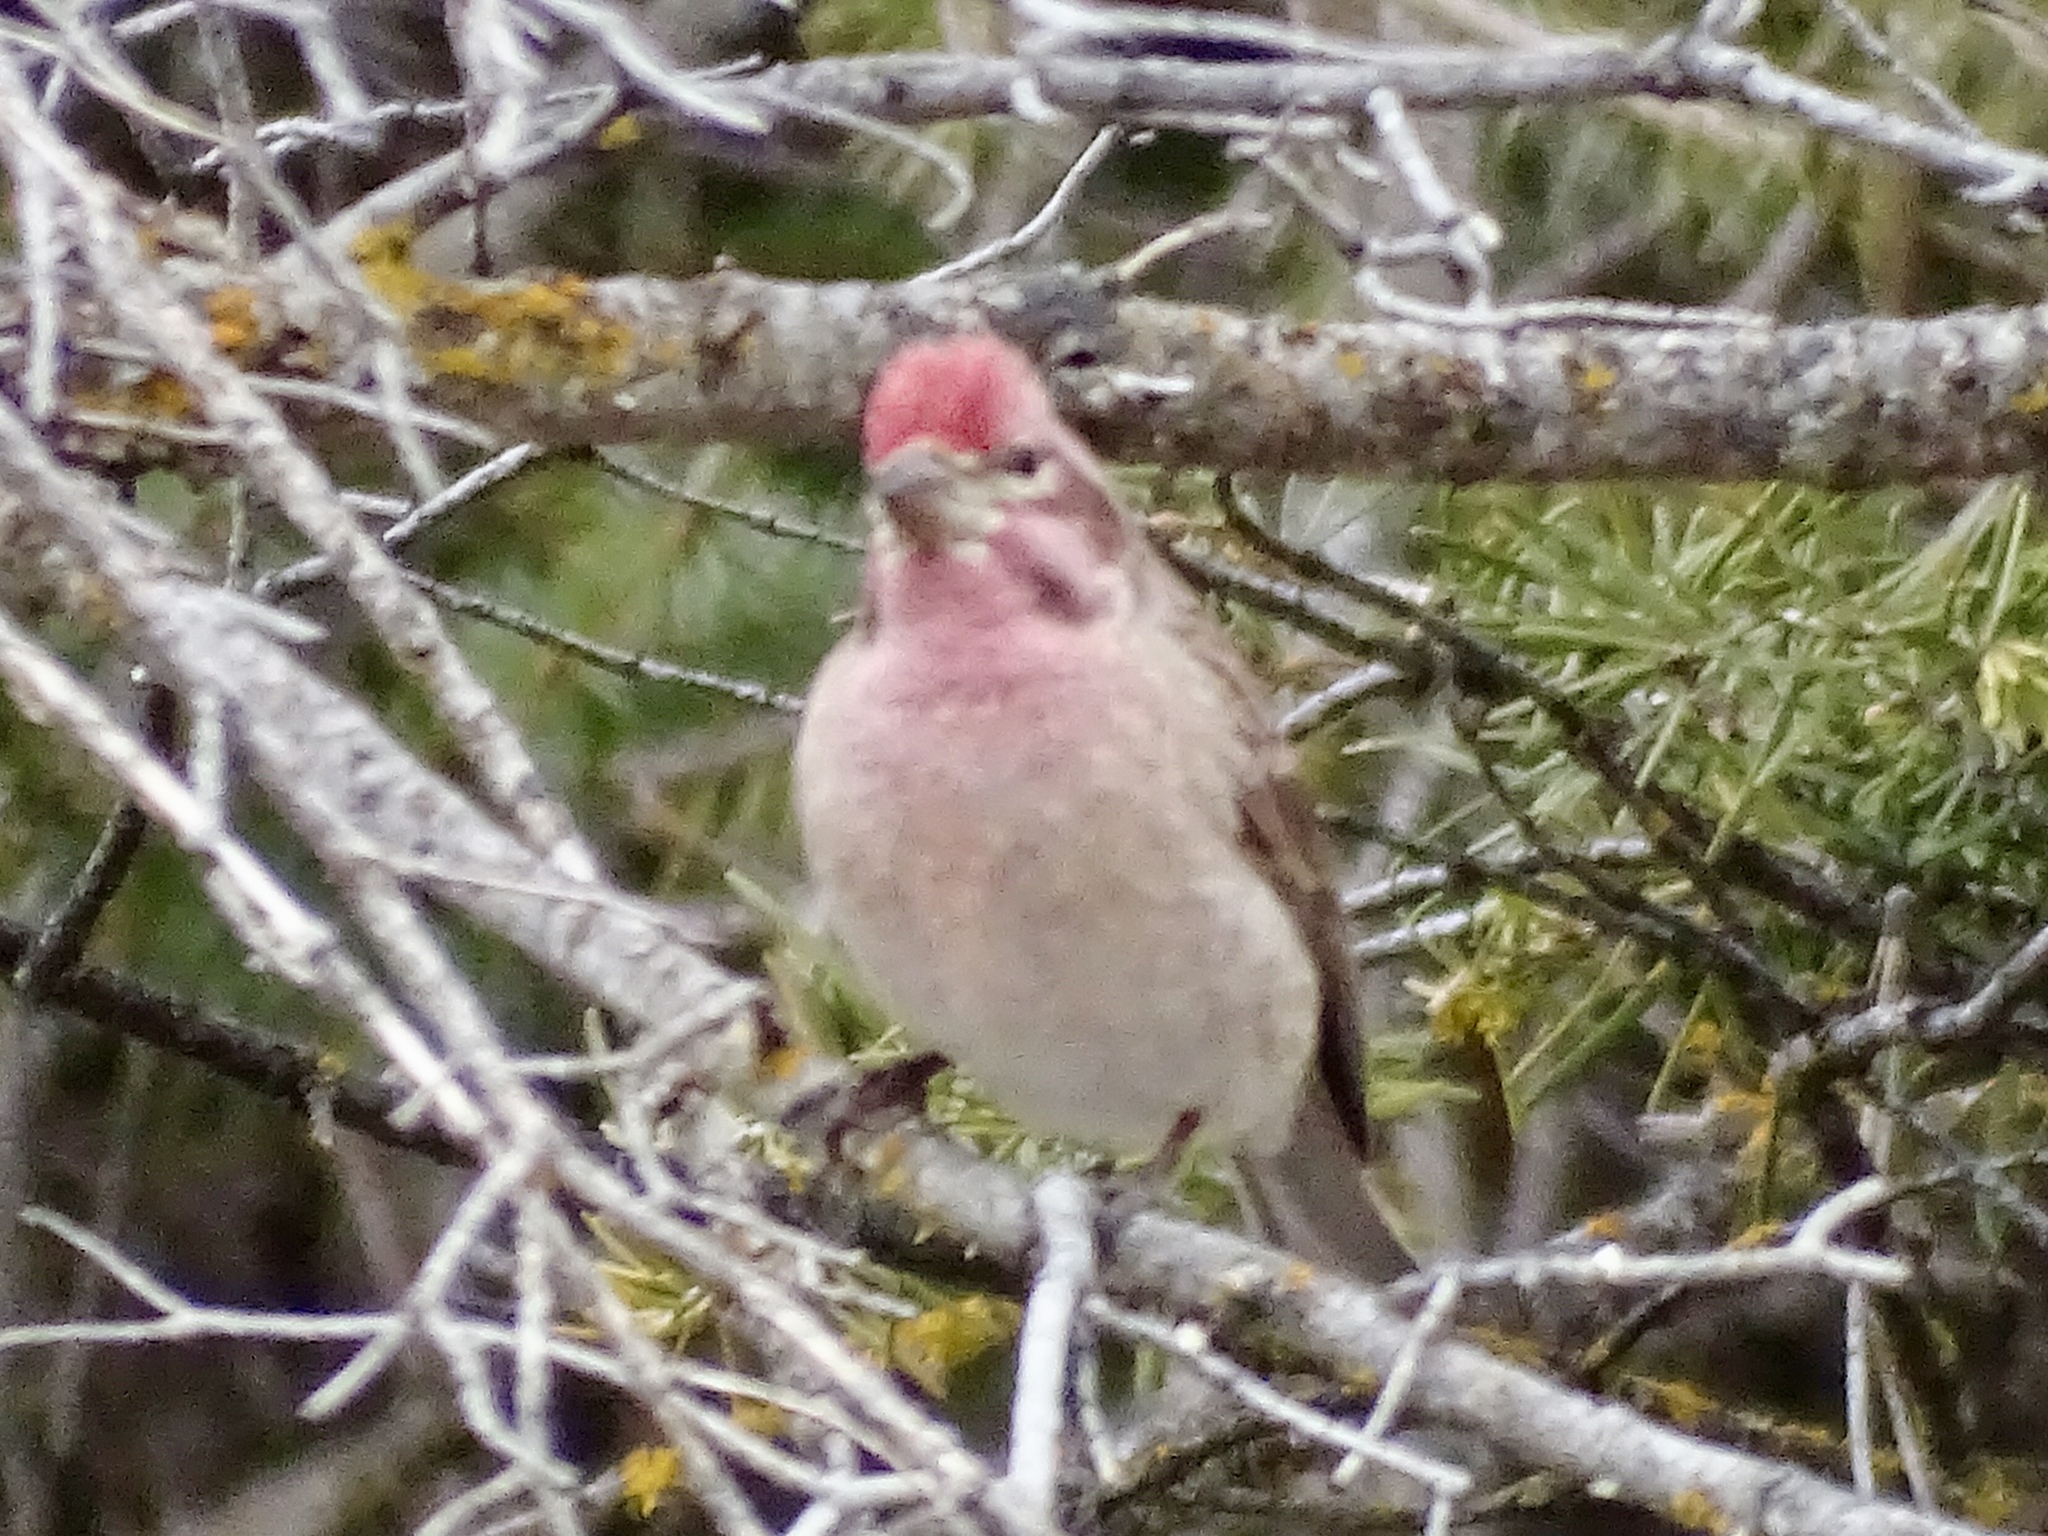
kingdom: Animalia
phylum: Chordata
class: Aves
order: Passeriformes
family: Fringillidae
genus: Haemorhous
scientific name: Haemorhous cassinii
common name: Cassin's finch
